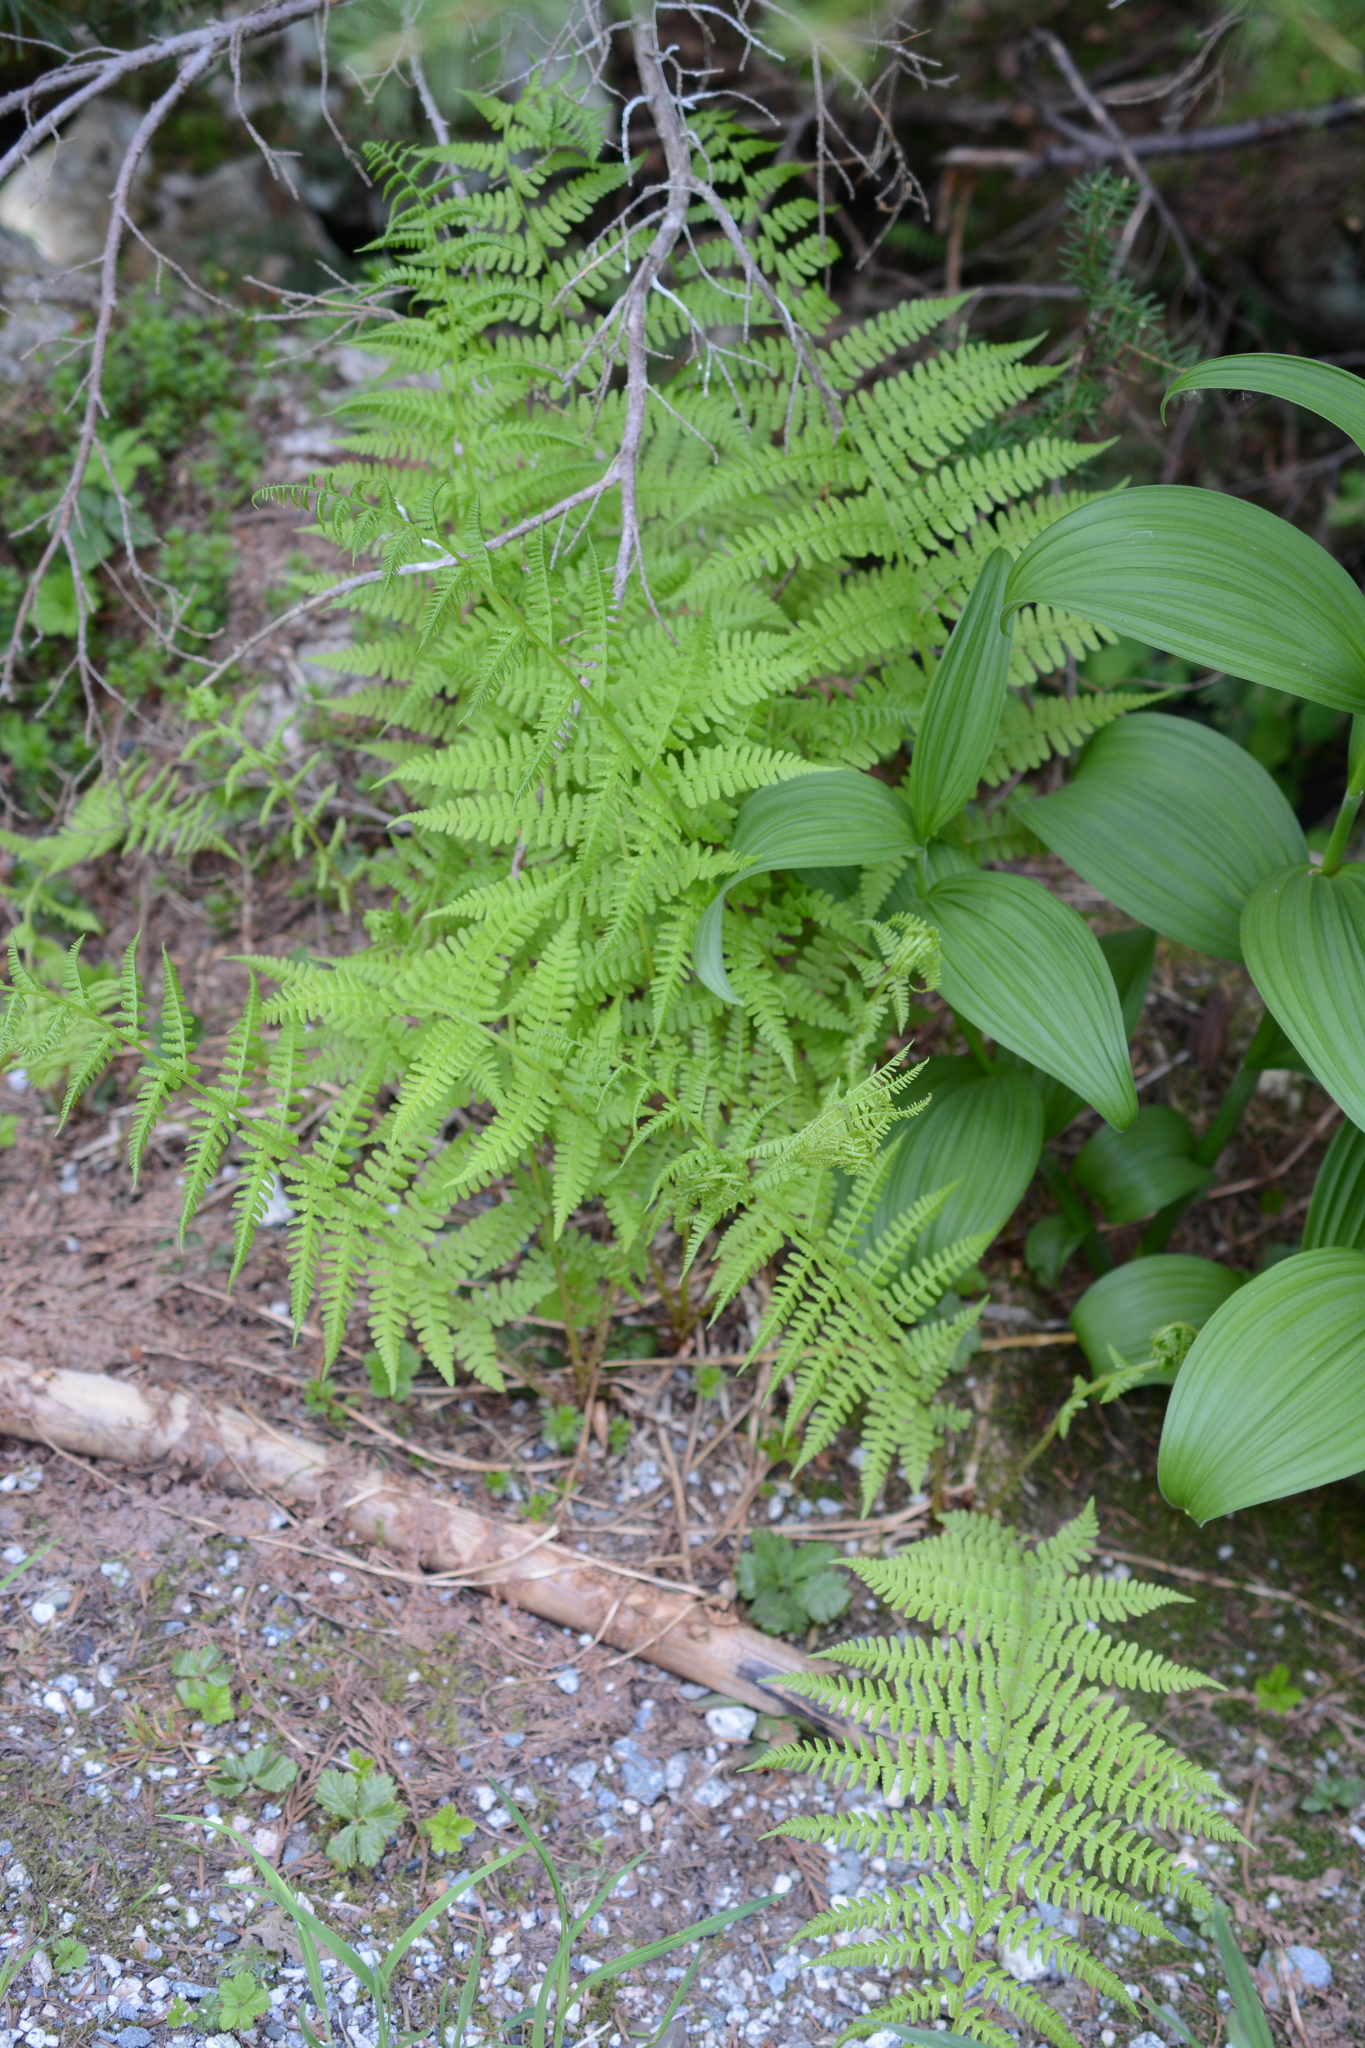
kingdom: Plantae
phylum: Tracheophyta
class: Polypodiopsida
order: Polypodiales
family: Athyriaceae
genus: Athyrium
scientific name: Athyrium filix-femina
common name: Lady fern
